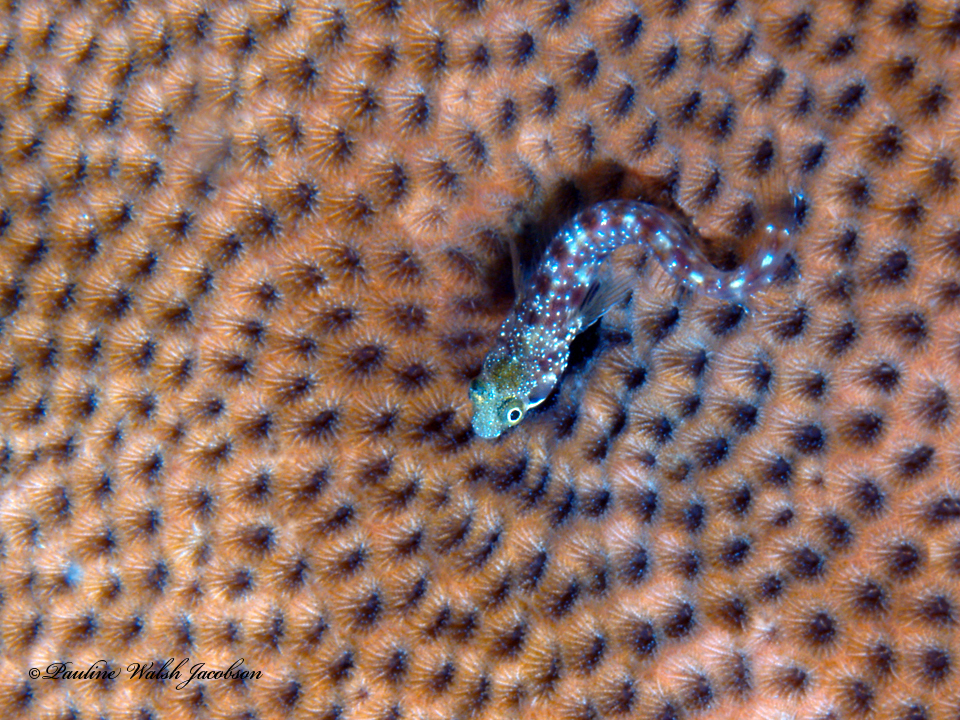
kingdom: Animalia
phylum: Chordata
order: Perciformes
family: Chaenopsidae
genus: Acanthemblemaria
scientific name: Acanthemblemaria spinosa
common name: Spinyhead blenny
